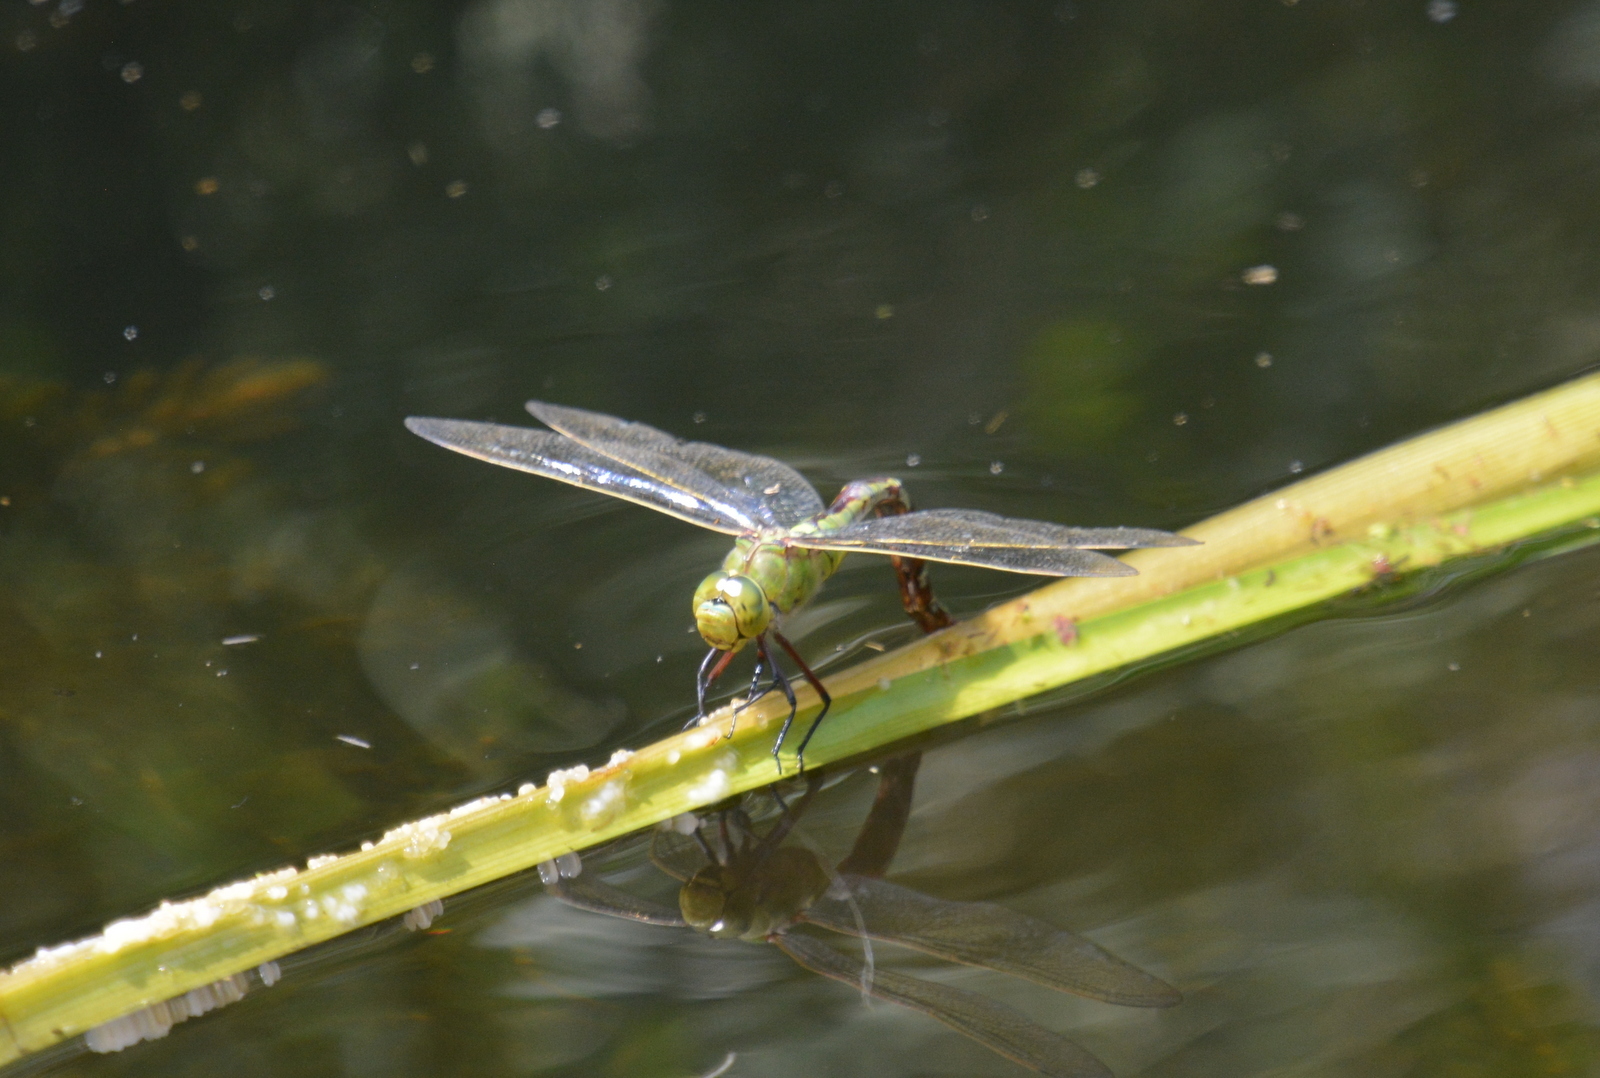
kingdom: Animalia
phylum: Arthropoda
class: Insecta
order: Odonata
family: Aeshnidae
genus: Anax
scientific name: Anax imperator
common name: Emperor dragonfly
